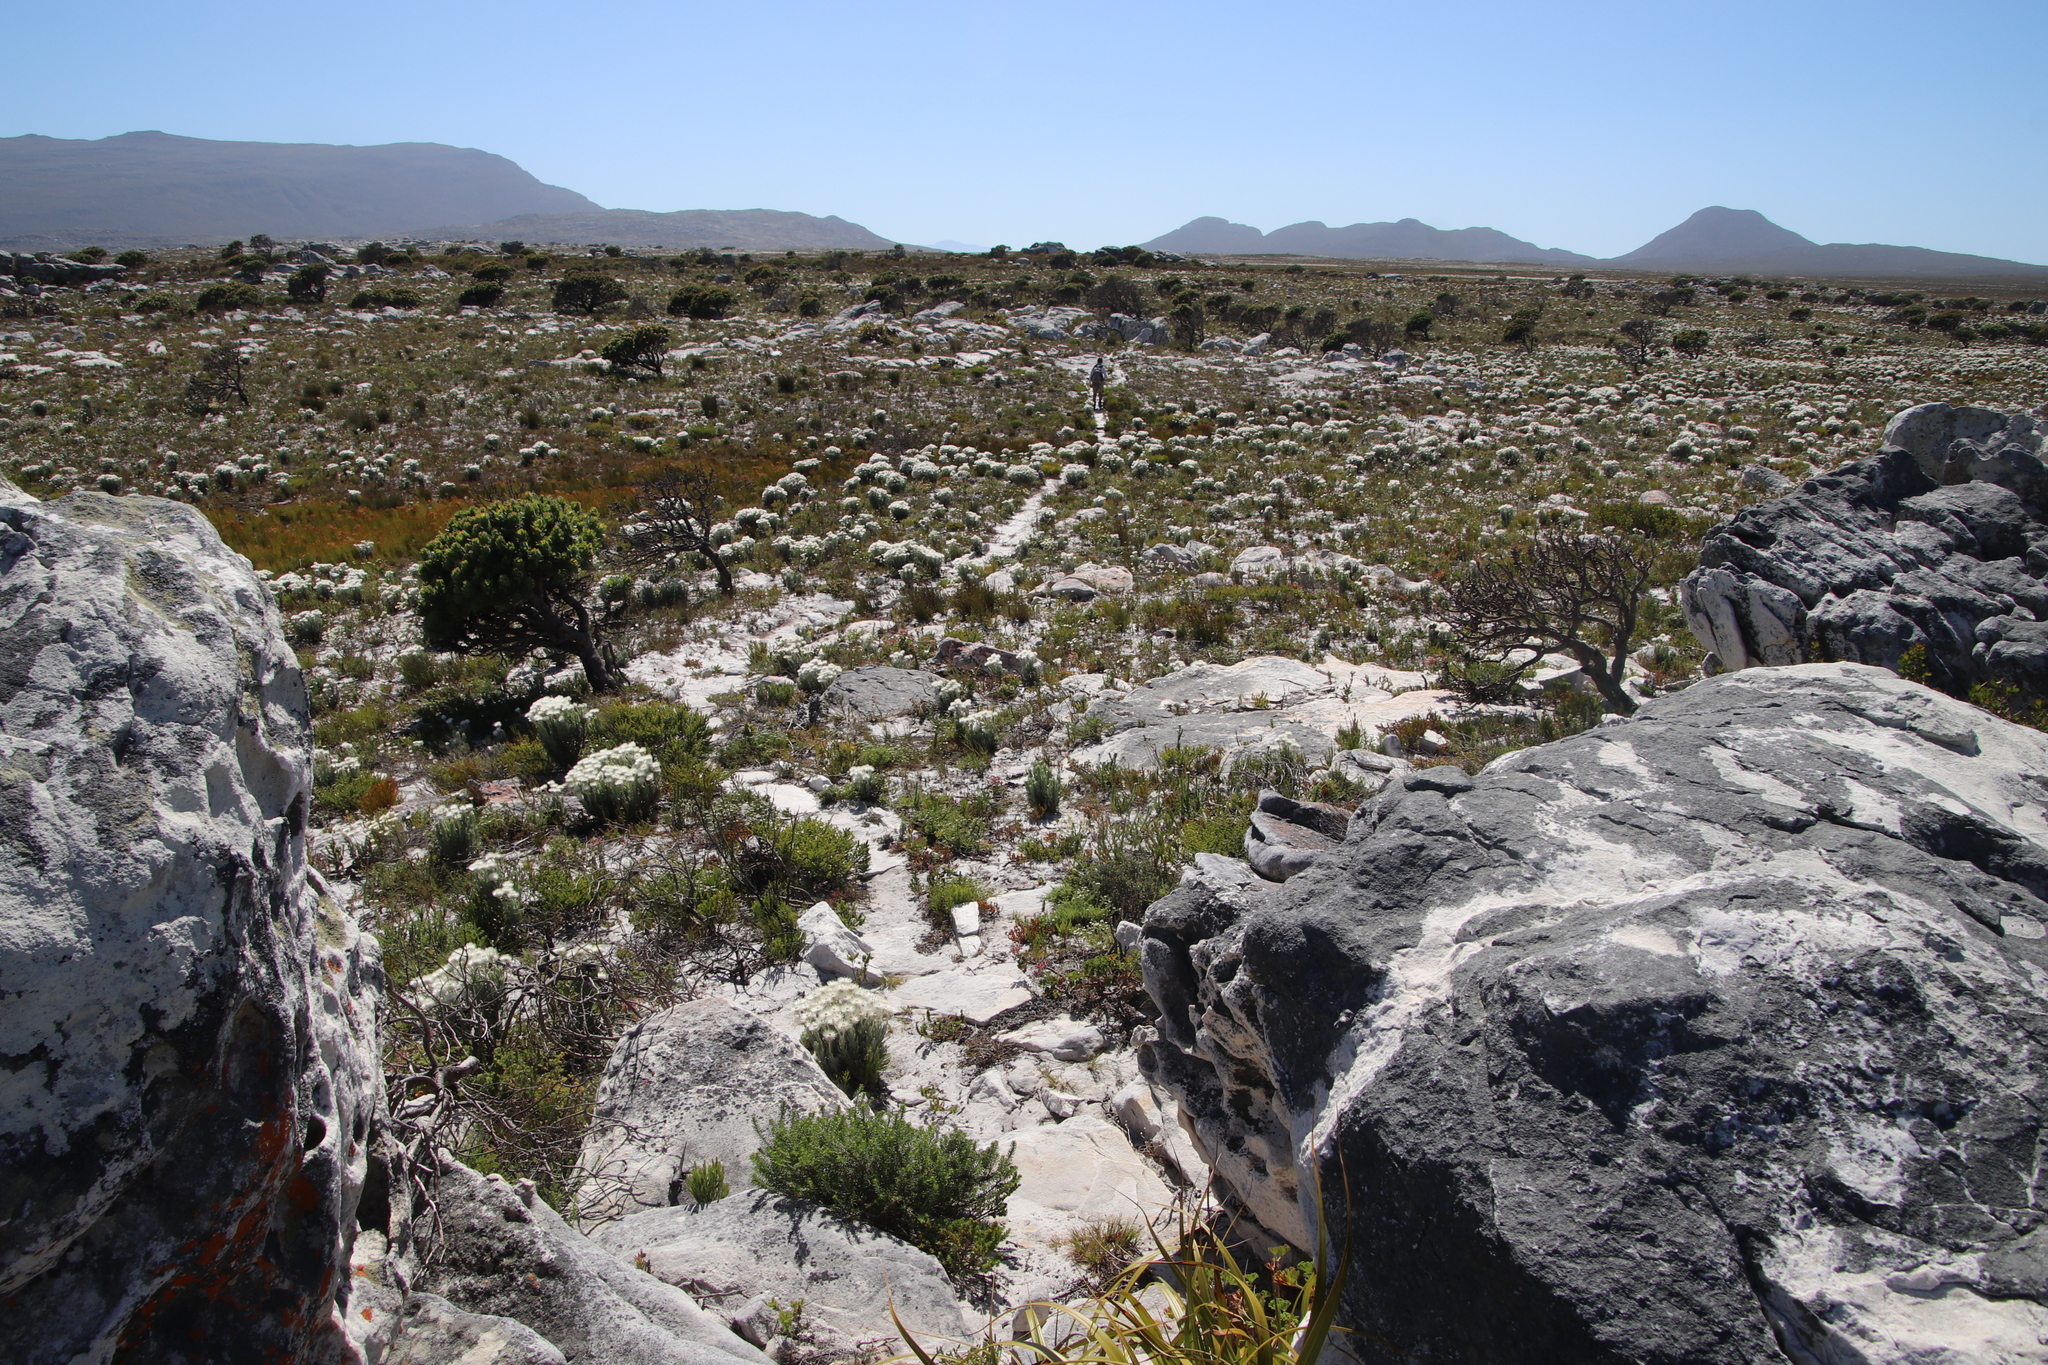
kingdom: Plantae
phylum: Tracheophyta
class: Magnoliopsida
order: Asterales
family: Asteraceae
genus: Syncarpha
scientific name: Syncarpha vestita
